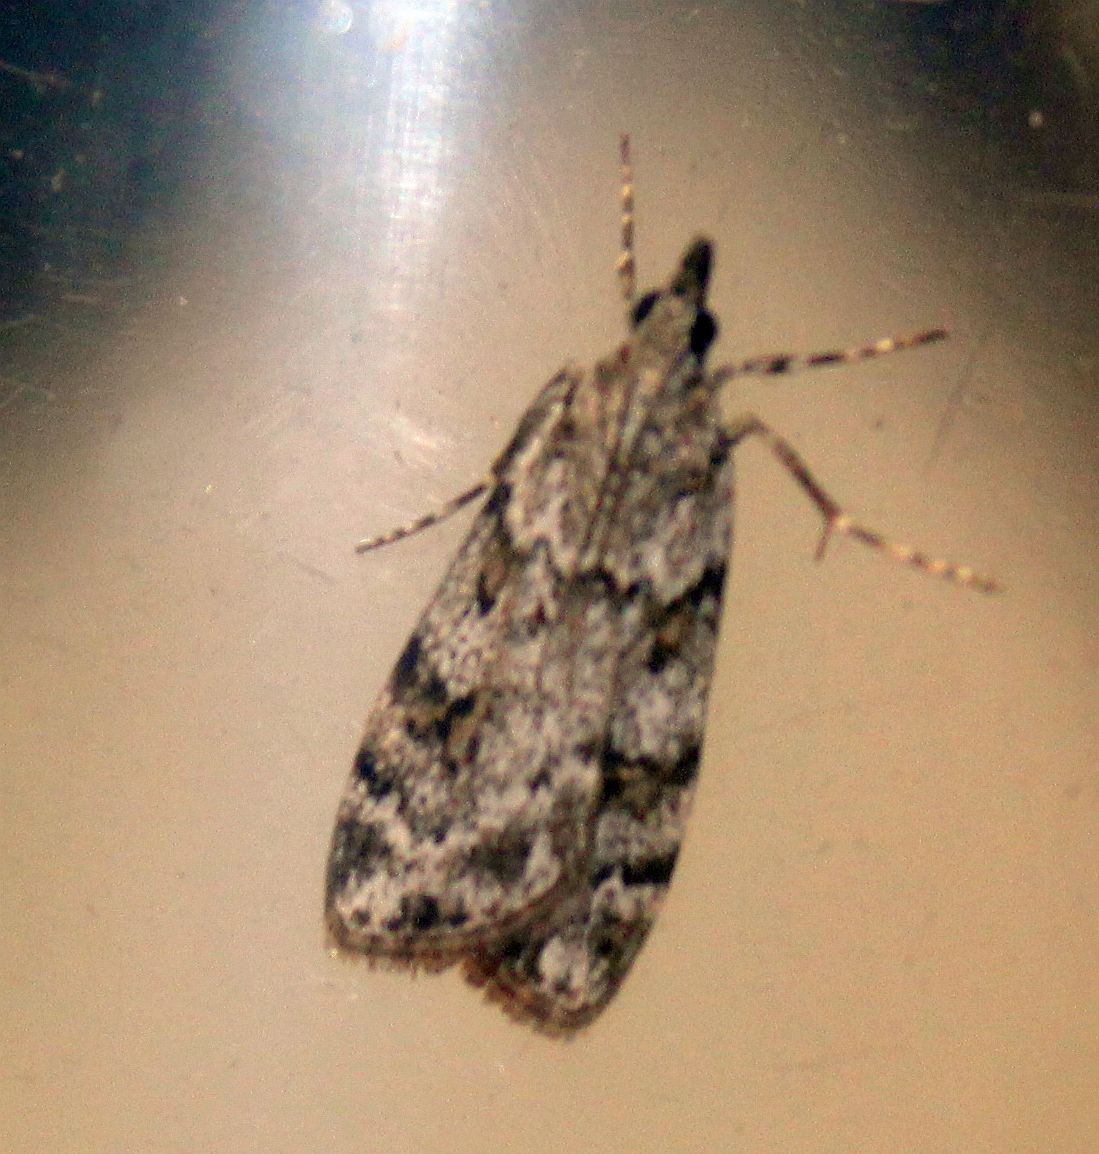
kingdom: Animalia
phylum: Arthropoda
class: Insecta
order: Lepidoptera
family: Crambidae
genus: Scoparia
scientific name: Scoparia ambigualis
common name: Common grey
